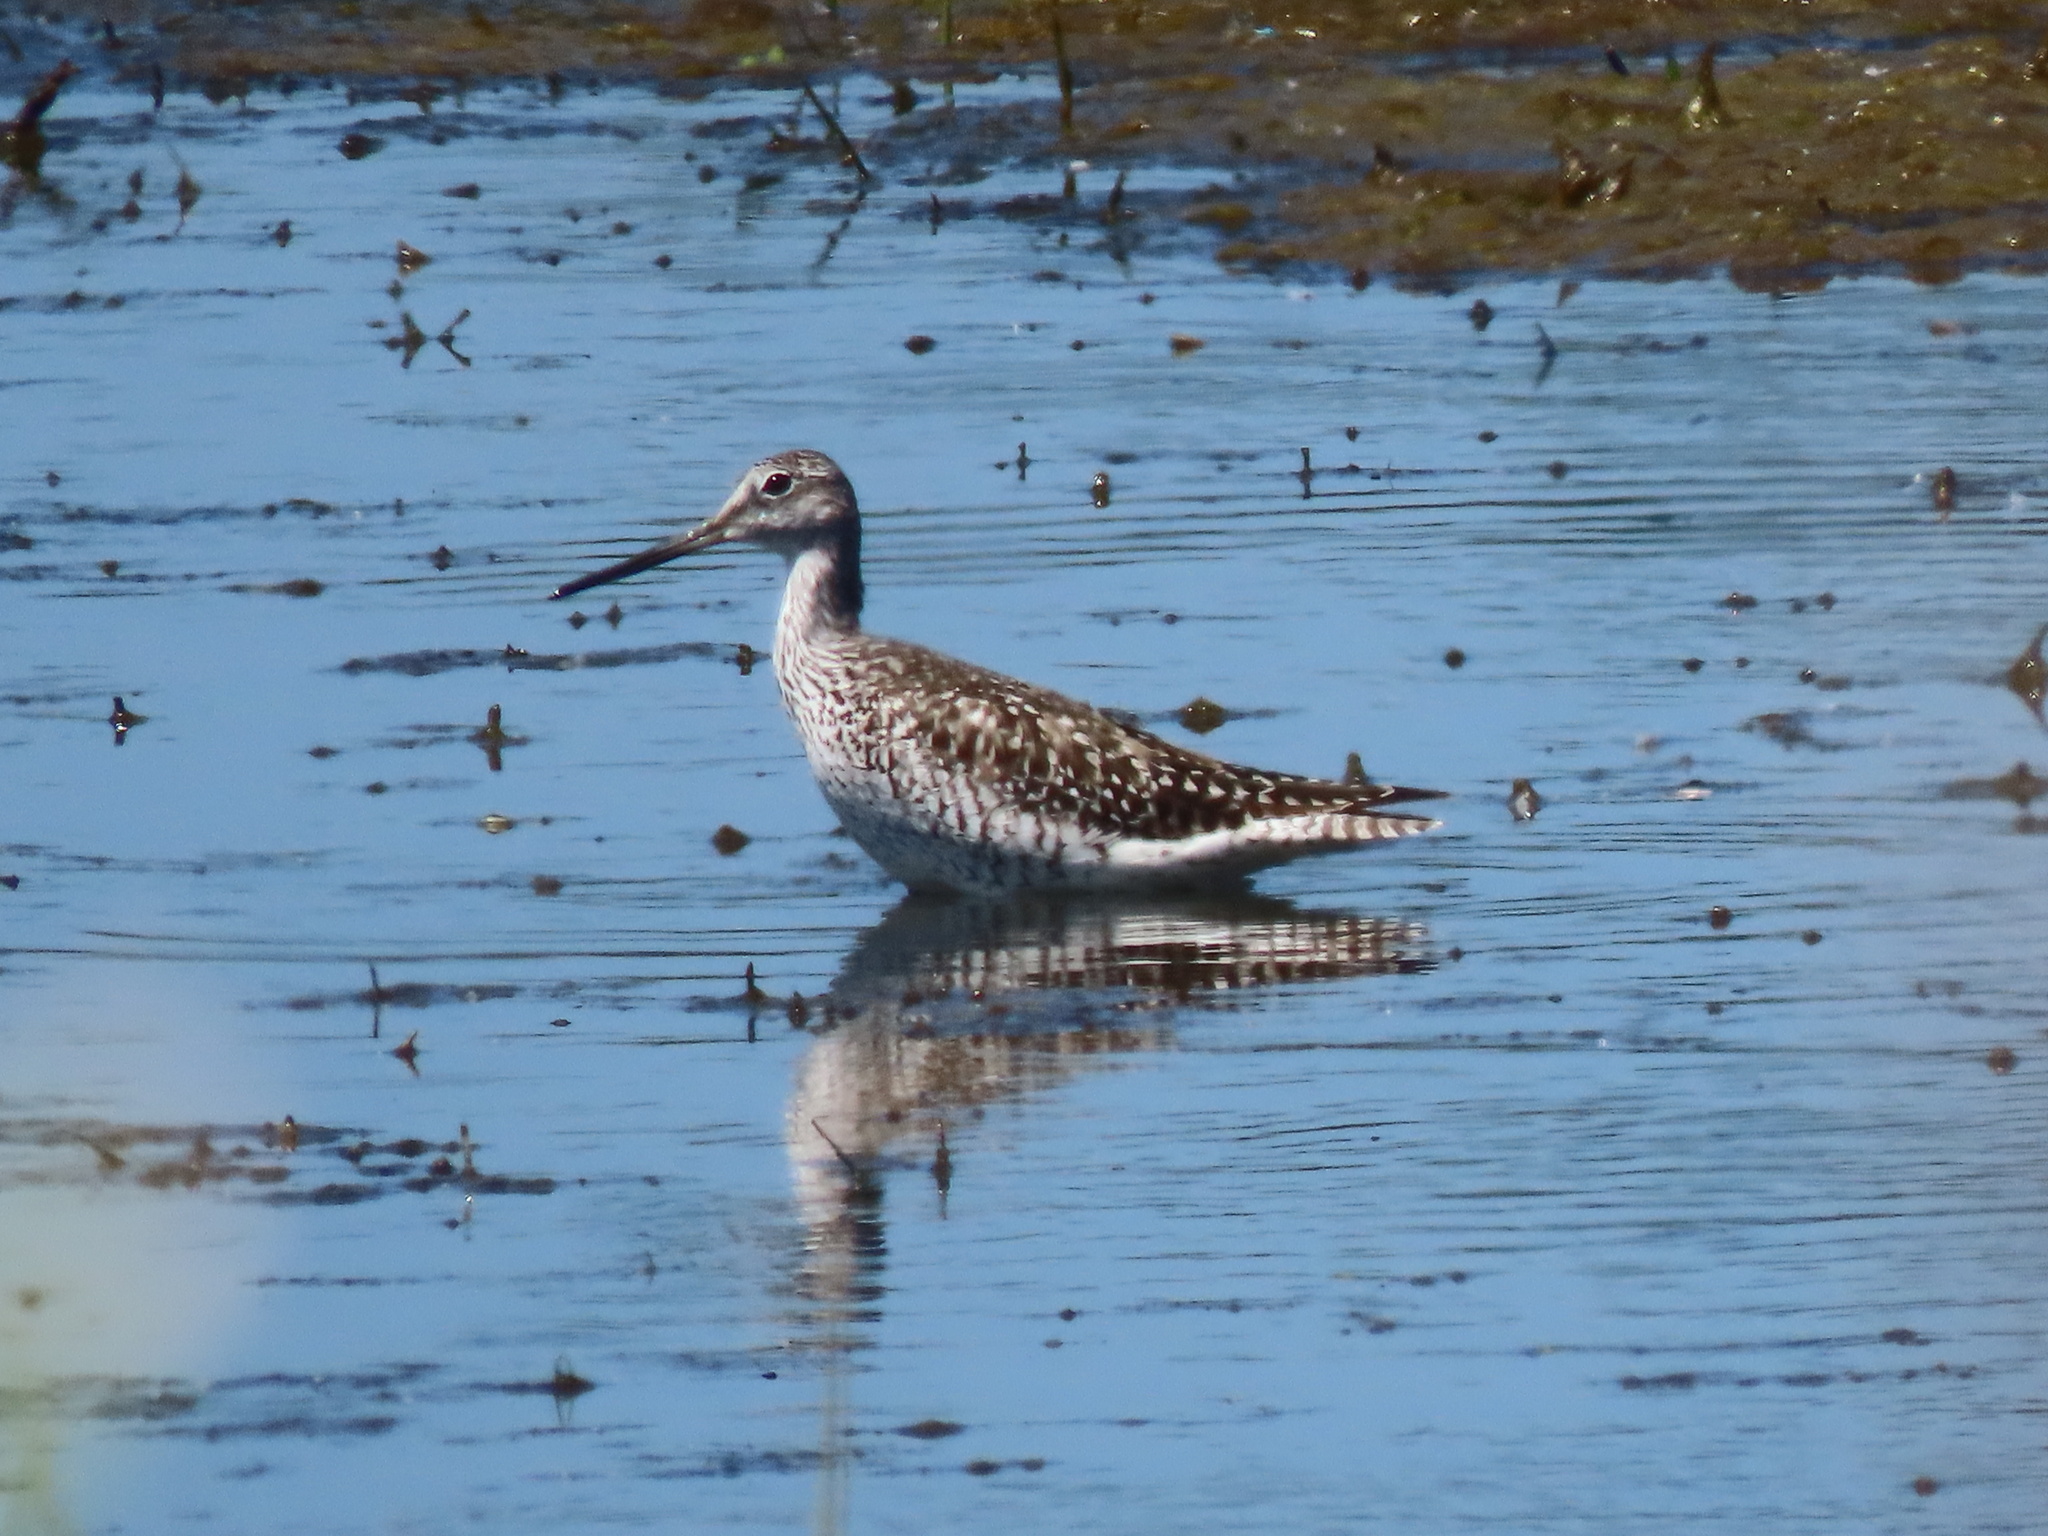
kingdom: Animalia
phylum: Chordata
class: Aves
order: Charadriiformes
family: Scolopacidae
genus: Tringa
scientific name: Tringa melanoleuca
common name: Greater yellowlegs
